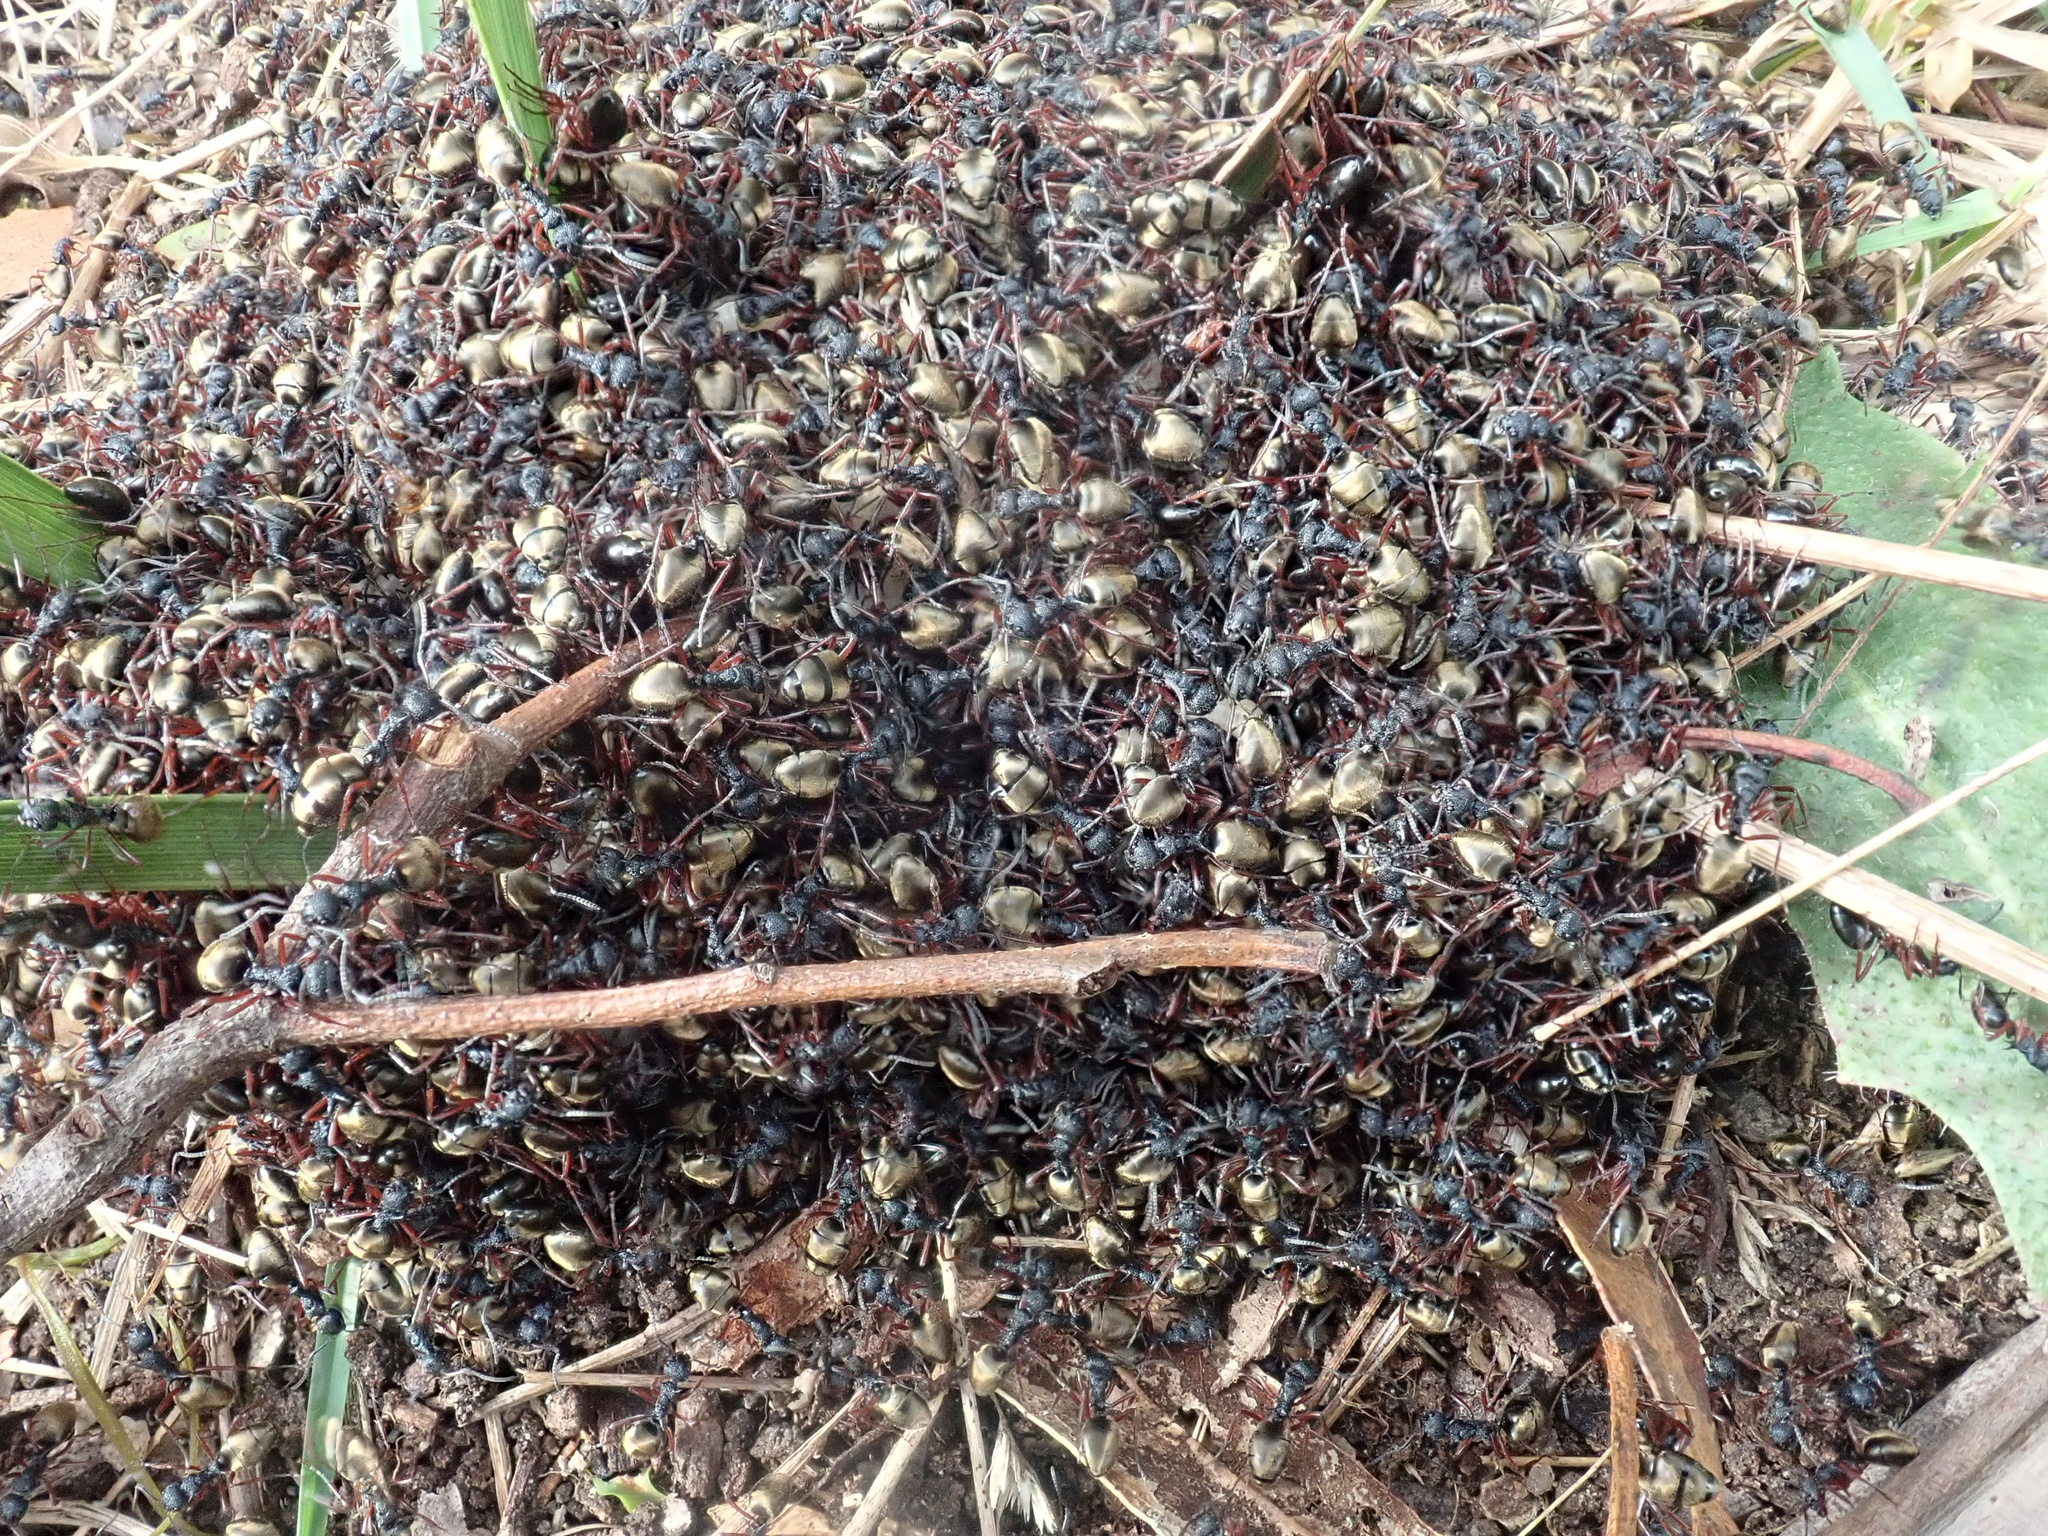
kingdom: Animalia
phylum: Arthropoda
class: Insecta
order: Hymenoptera
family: Formicidae
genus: Dolichoderus
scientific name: Dolichoderus doriae
